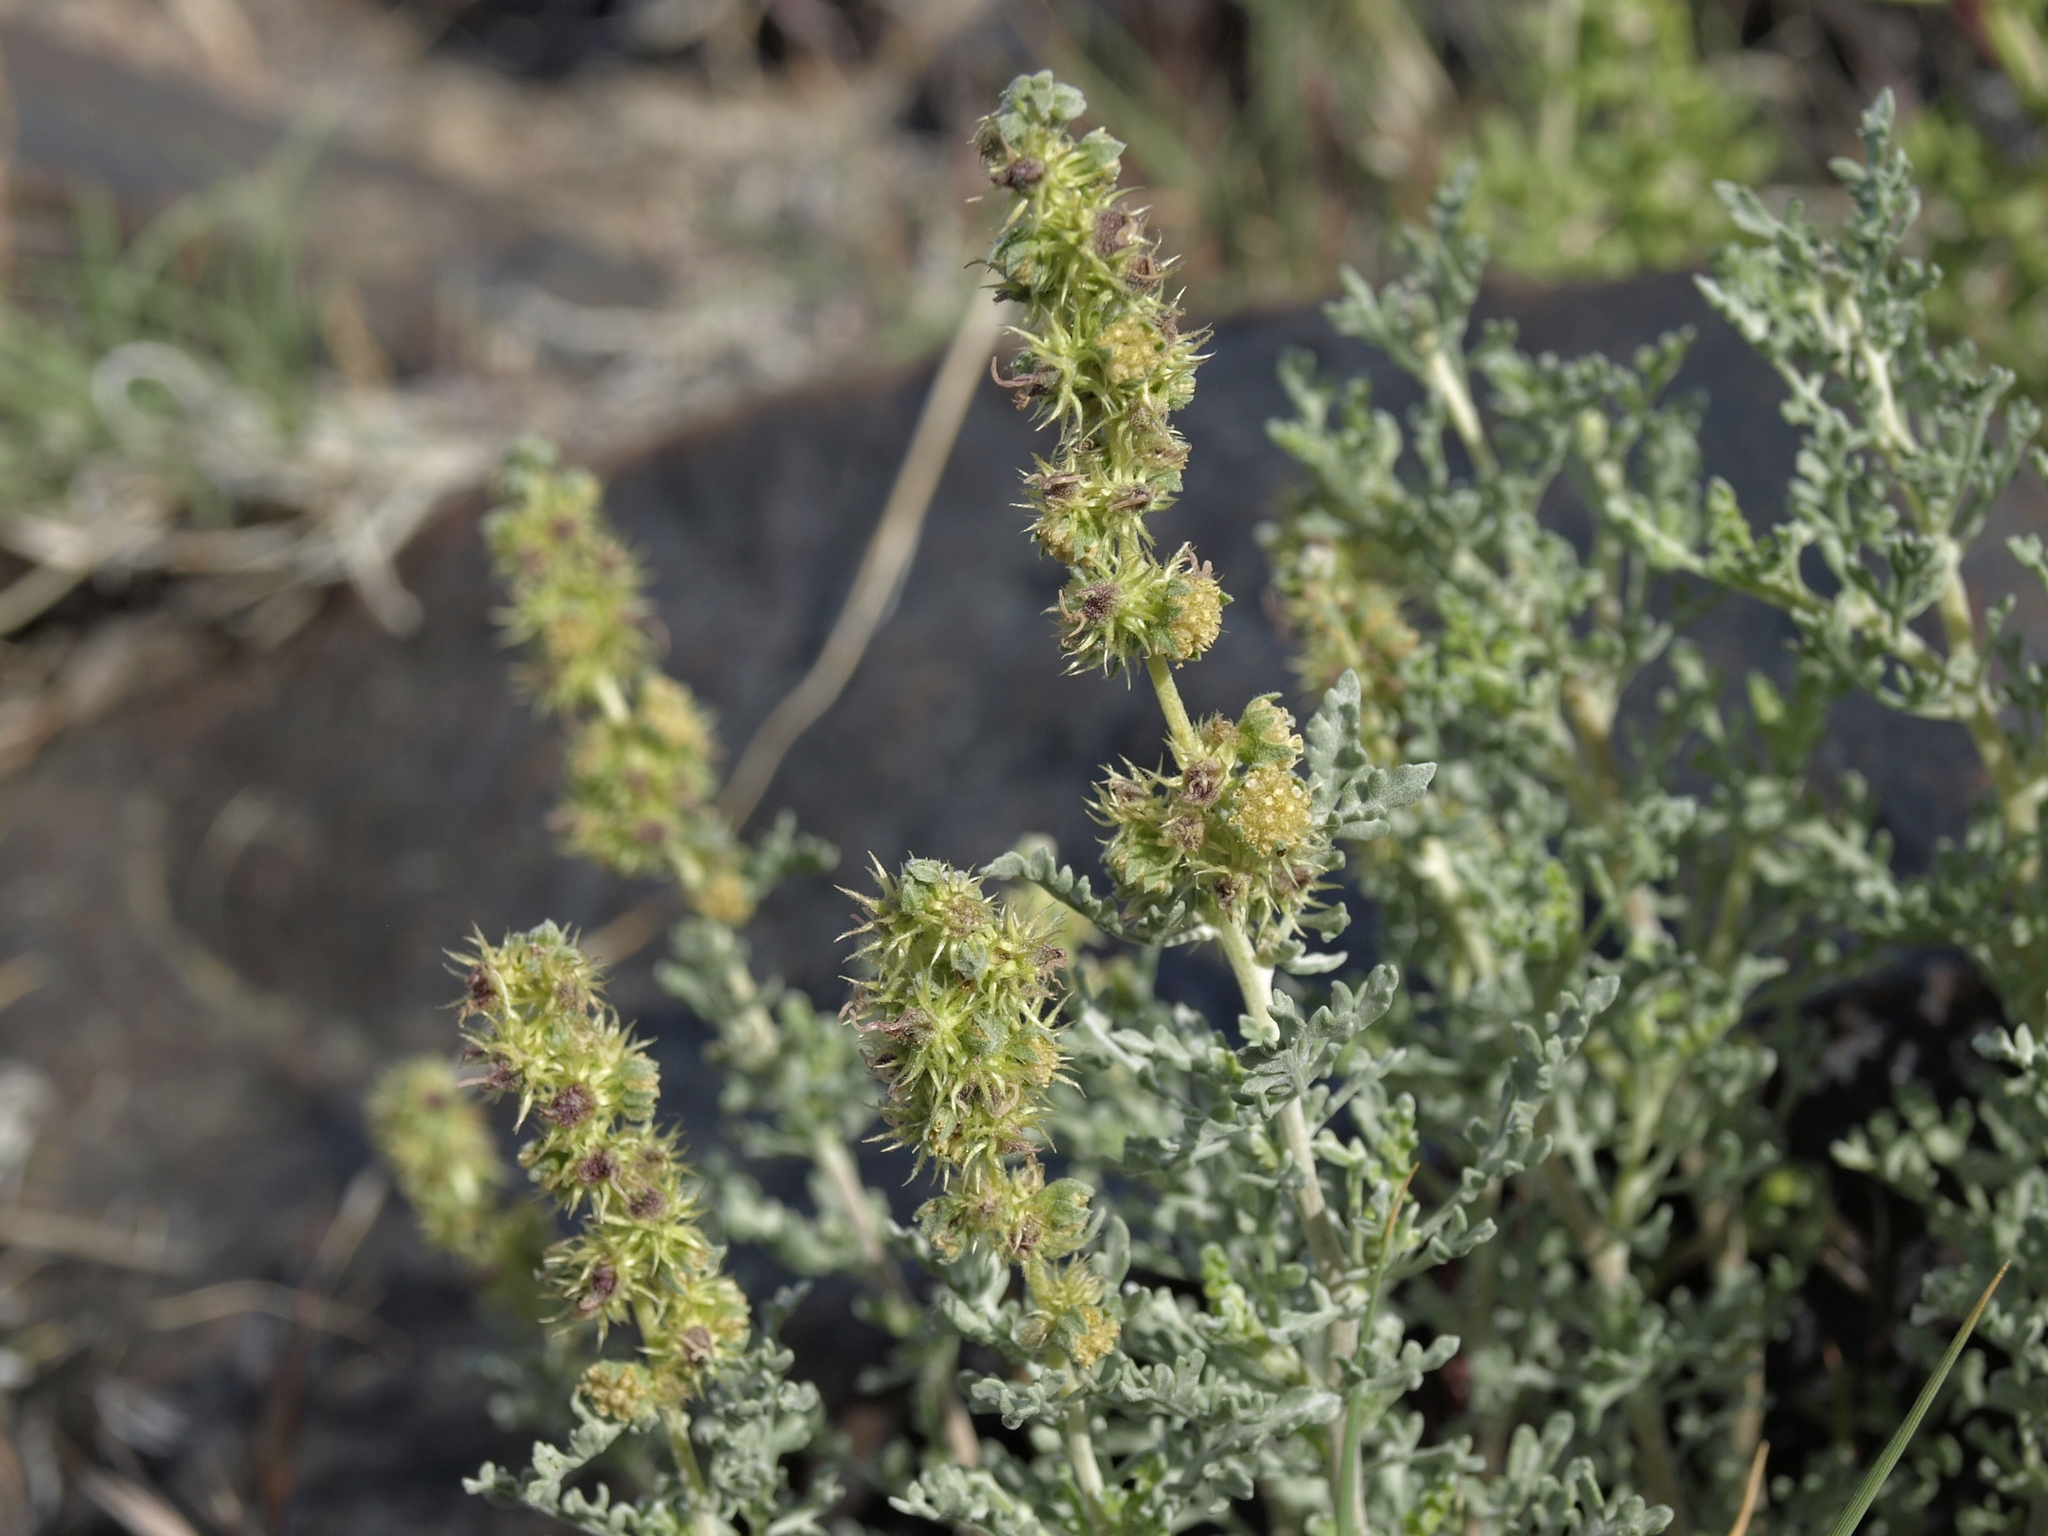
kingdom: Plantae
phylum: Tracheophyta
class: Magnoliopsida
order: Asterales
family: Asteraceae
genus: Ambrosia
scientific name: Ambrosia dumosa
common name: Bur-sage
